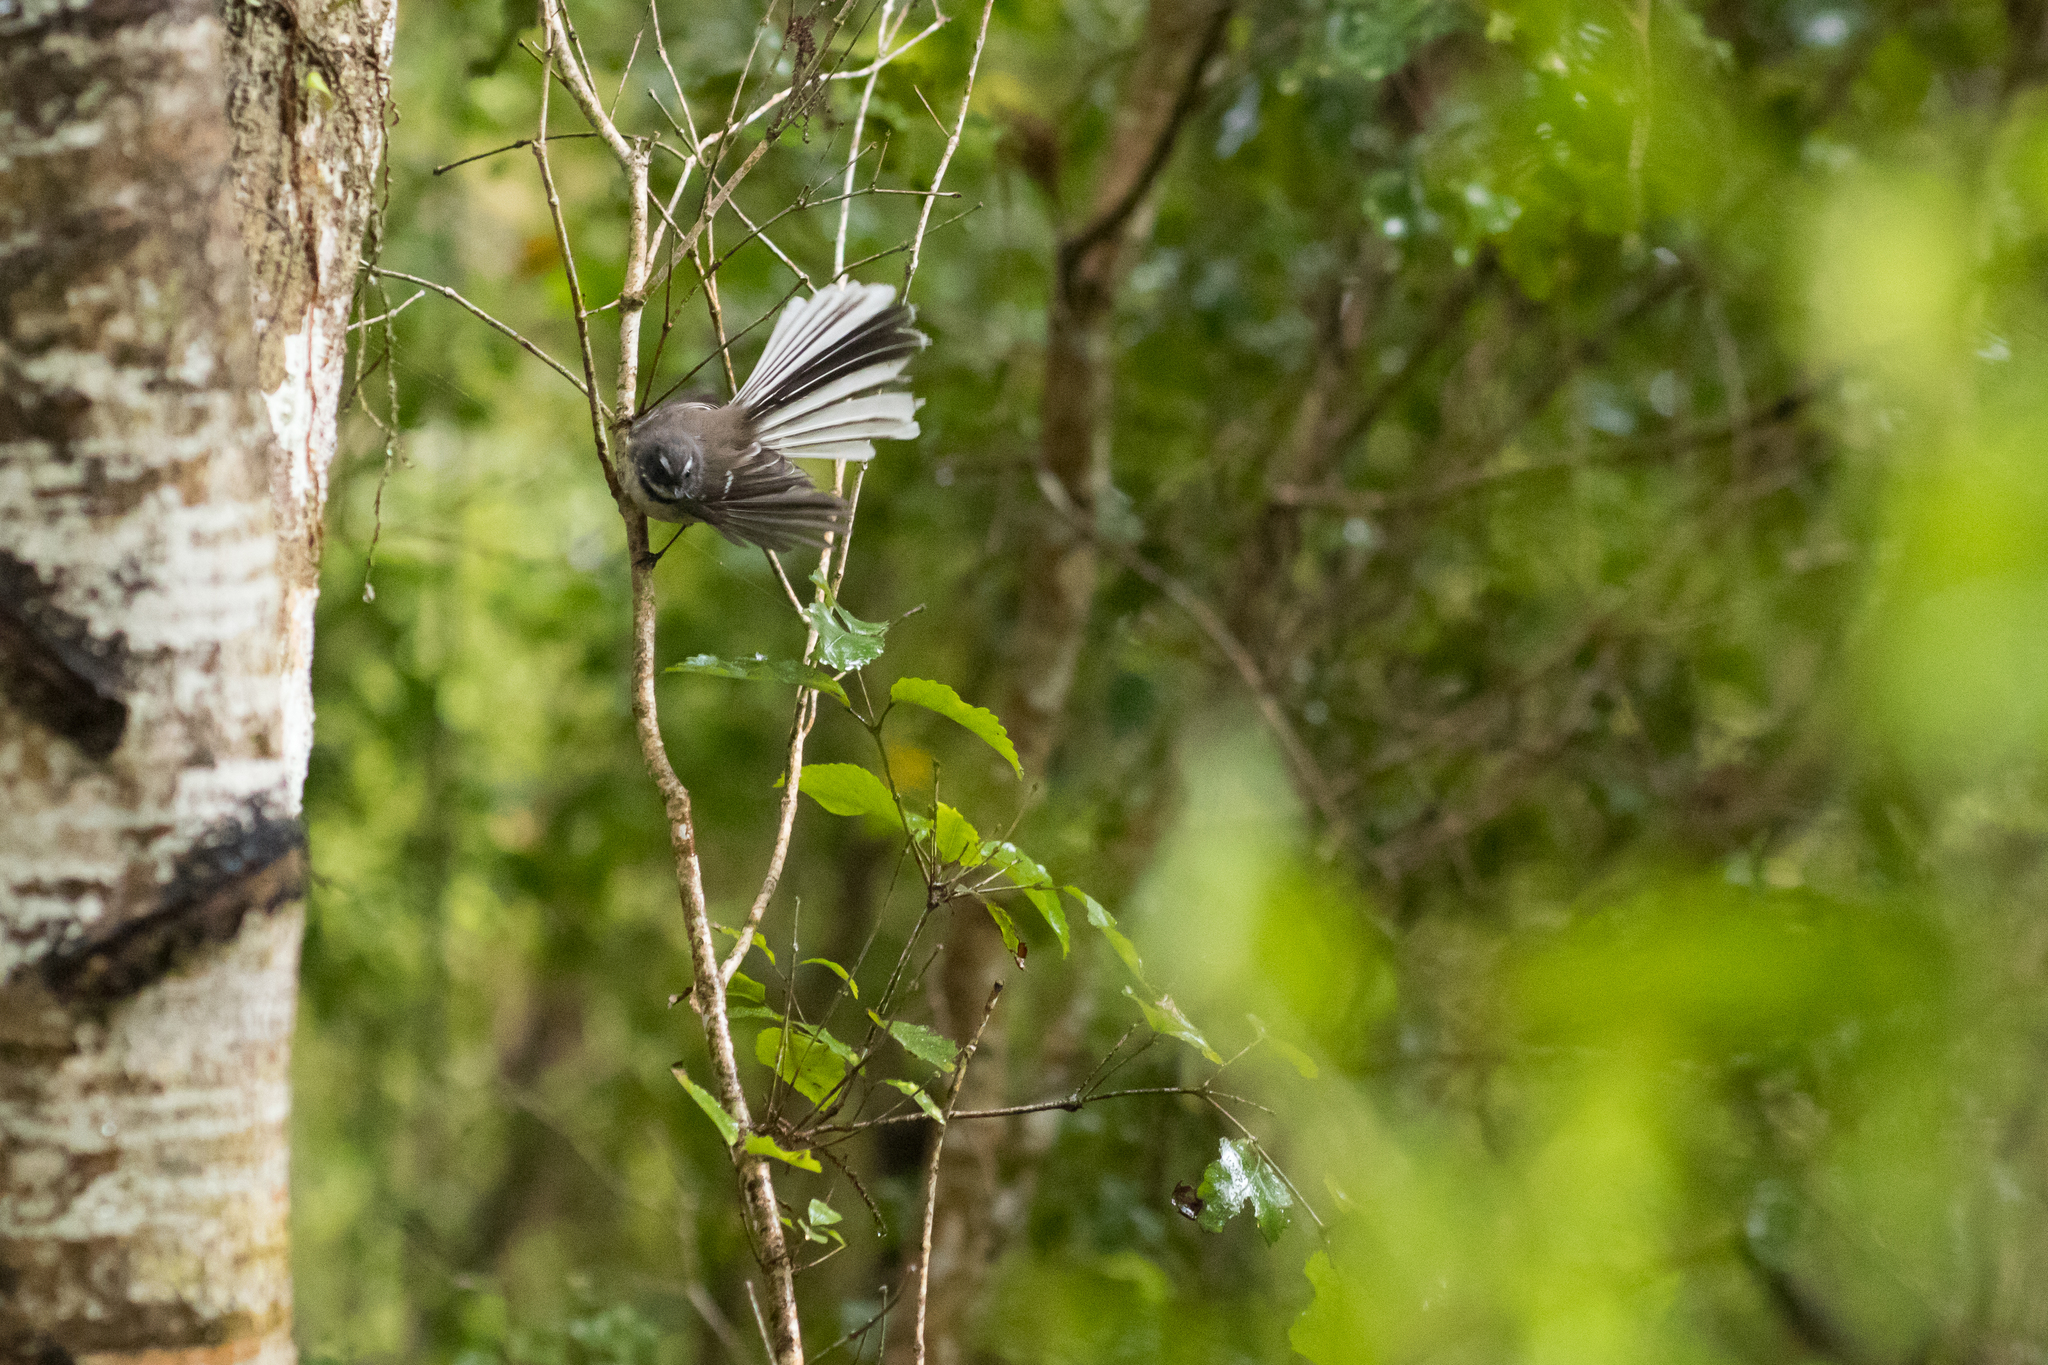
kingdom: Animalia
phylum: Chordata
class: Aves
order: Passeriformes
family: Rhipiduridae
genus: Rhipidura
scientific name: Rhipidura fuliginosa
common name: New zealand fantail
